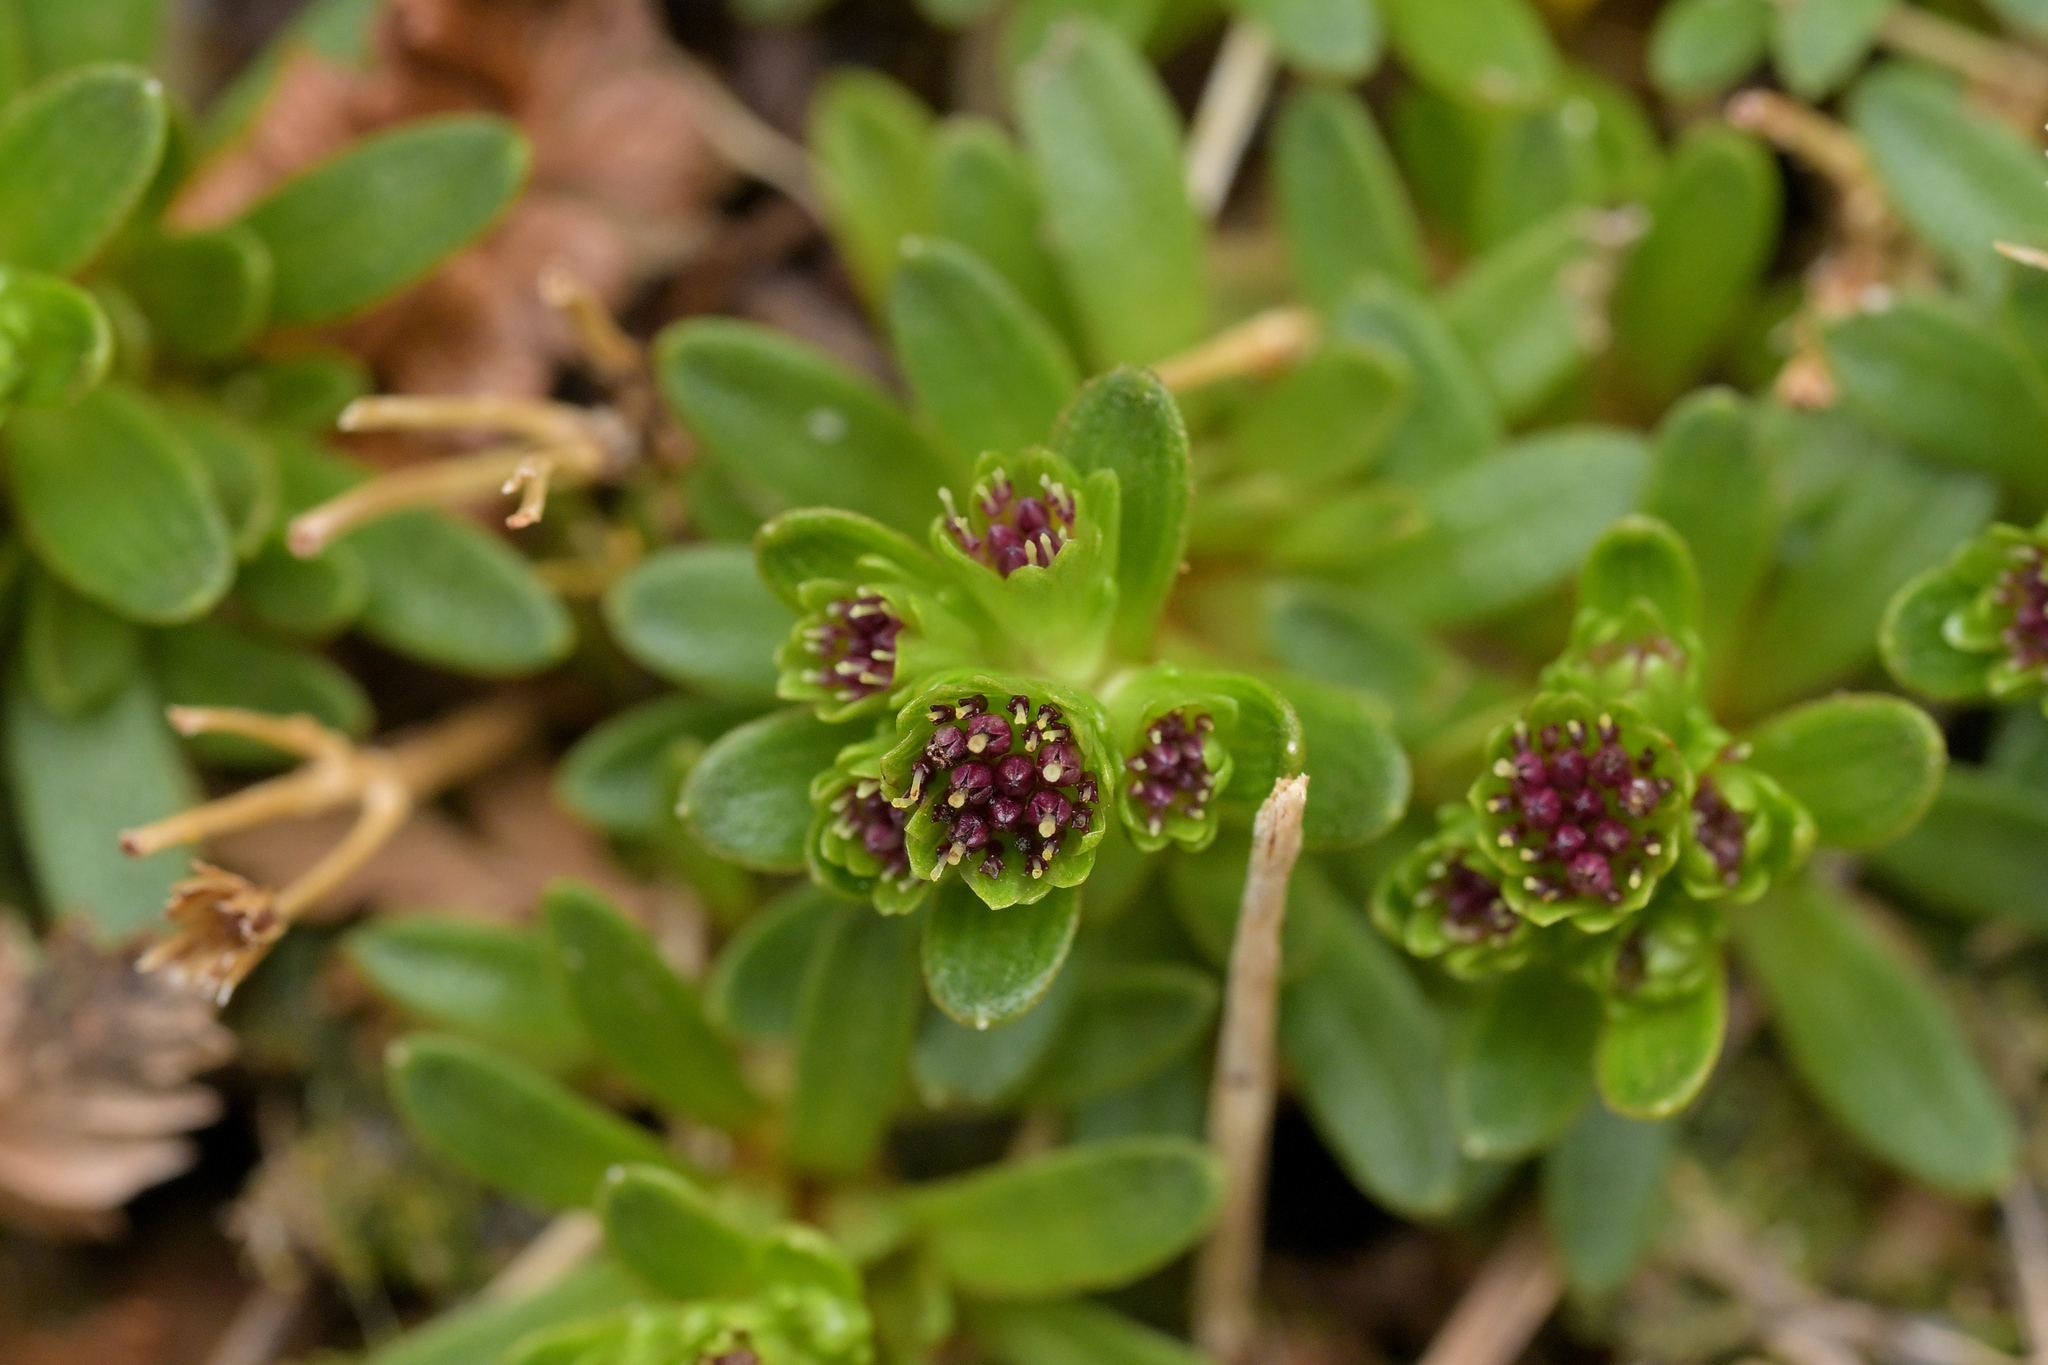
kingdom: Plantae
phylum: Tracheophyta
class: Magnoliopsida
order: Asterales
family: Asteraceae
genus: Abrotanella
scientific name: Abrotanella spathulata
